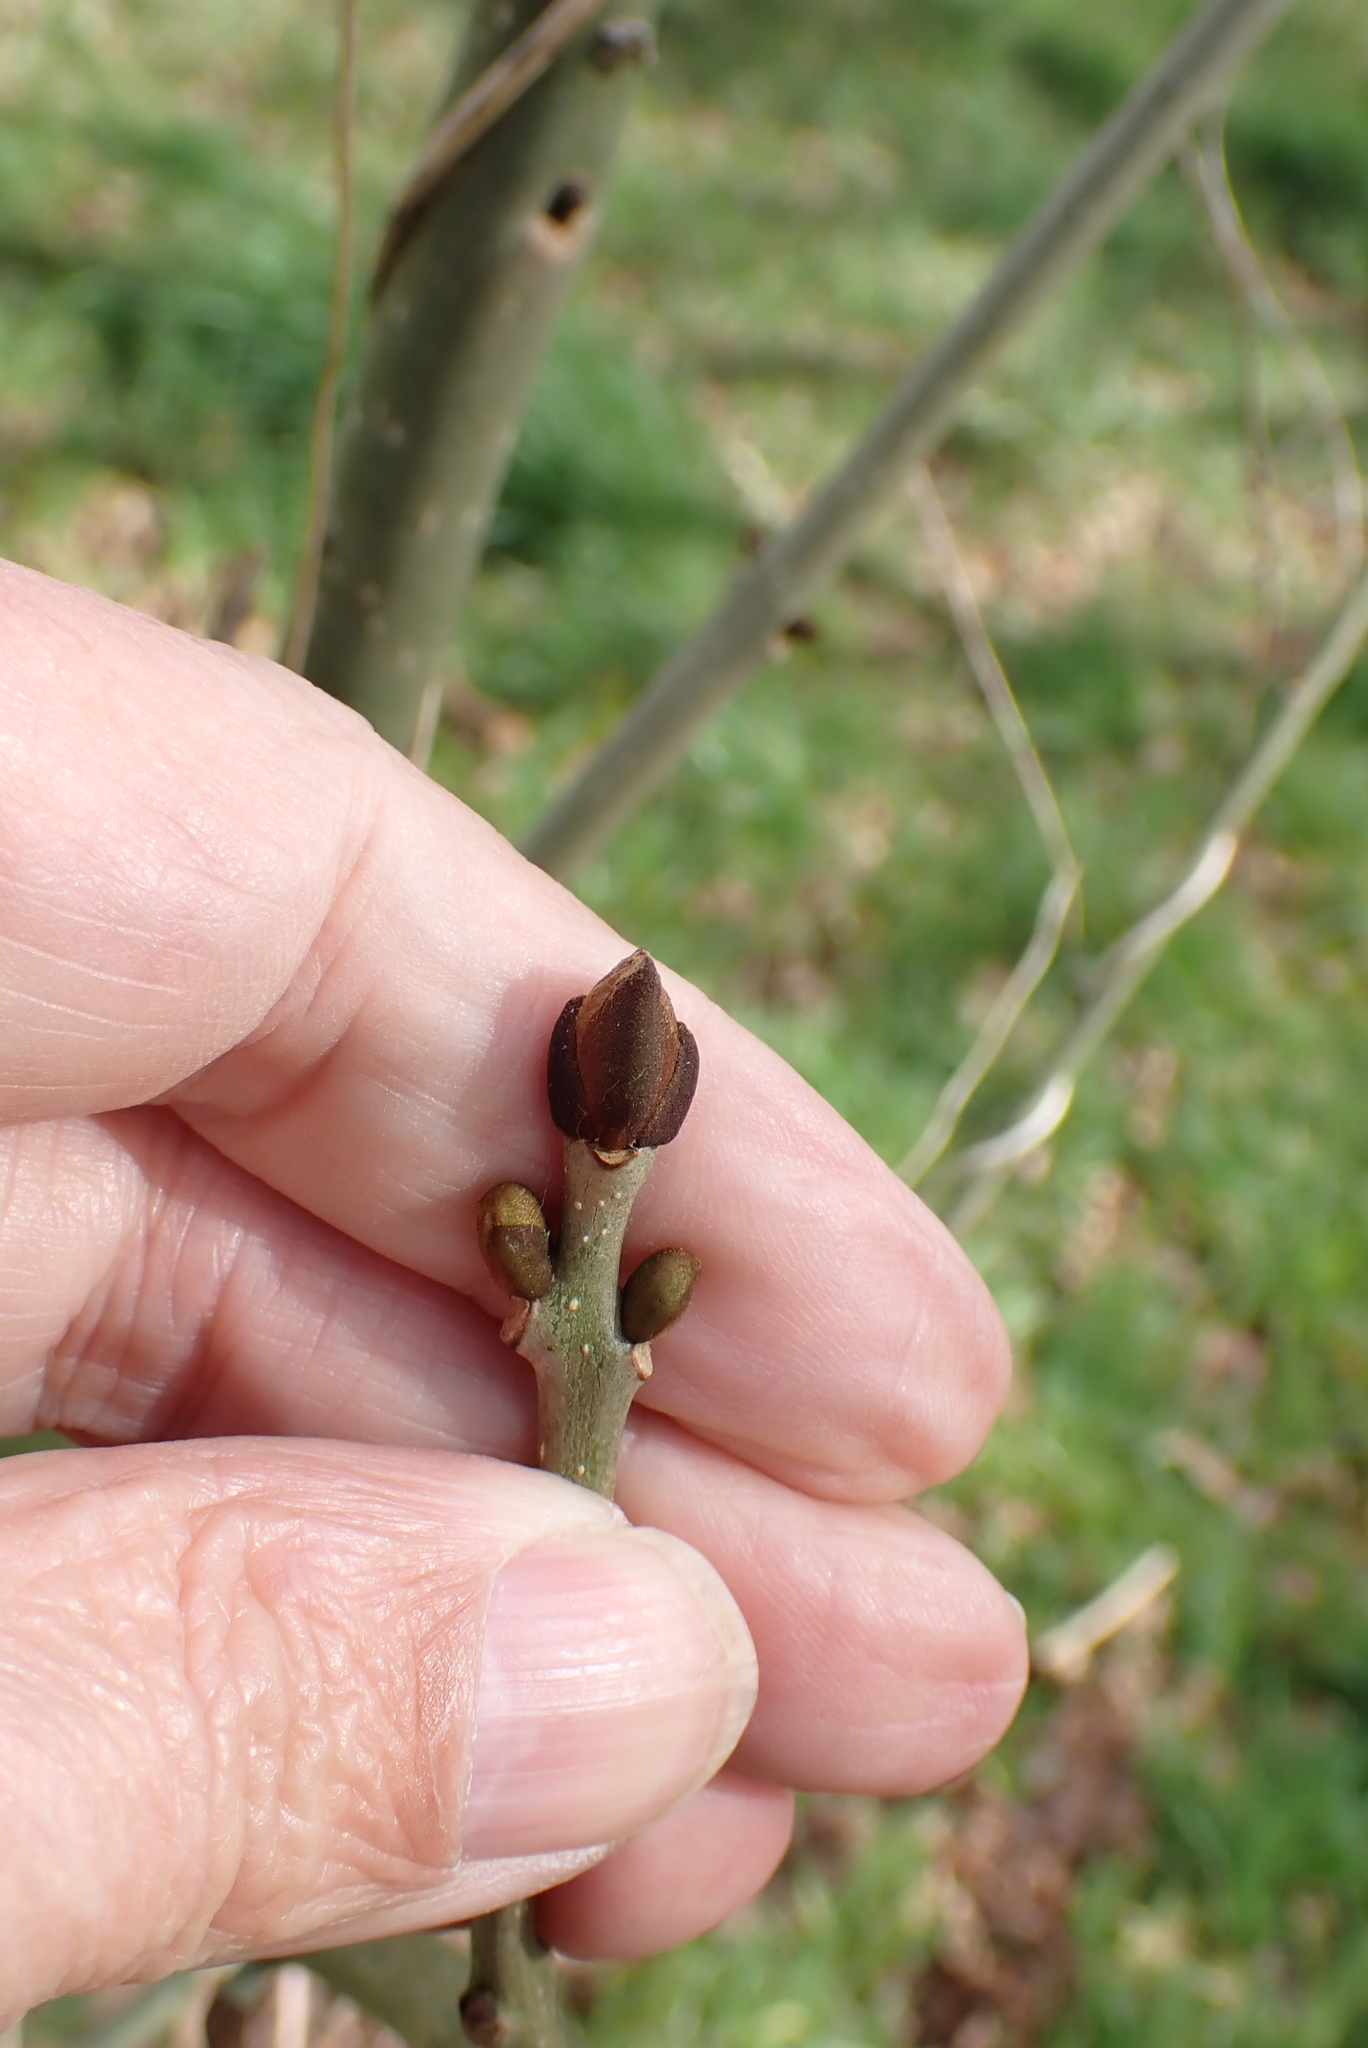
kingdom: Plantae
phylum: Tracheophyta
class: Magnoliopsida
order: Lamiales
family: Oleaceae
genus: Fraxinus
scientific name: Fraxinus excelsior
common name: European ash
